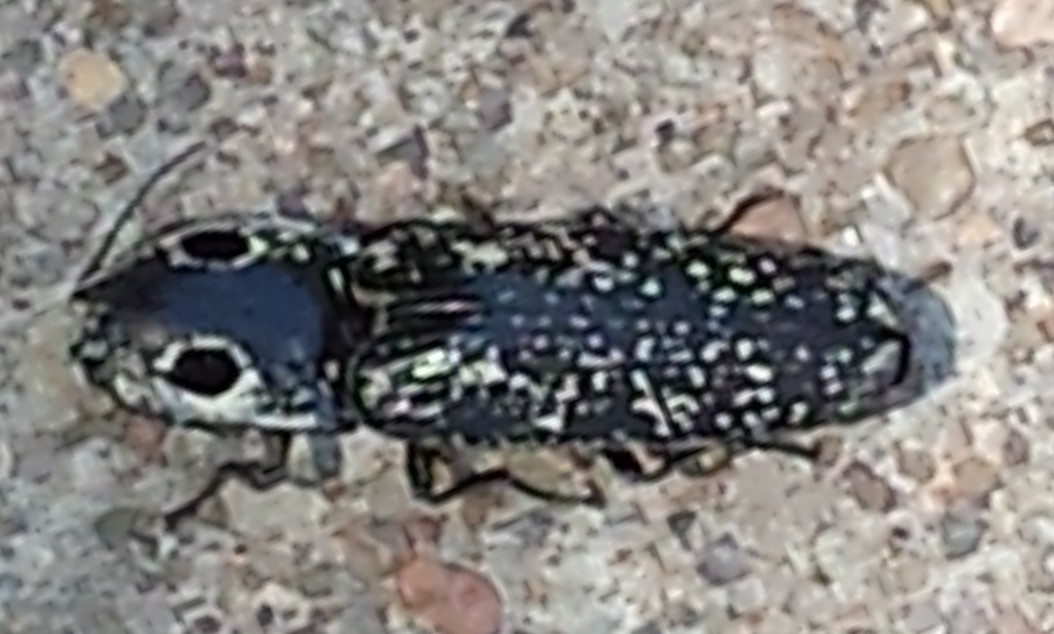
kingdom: Animalia
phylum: Arthropoda
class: Insecta
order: Coleoptera
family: Elateridae
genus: Alaus
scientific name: Alaus oculatus
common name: Eastern eyed click beetle
